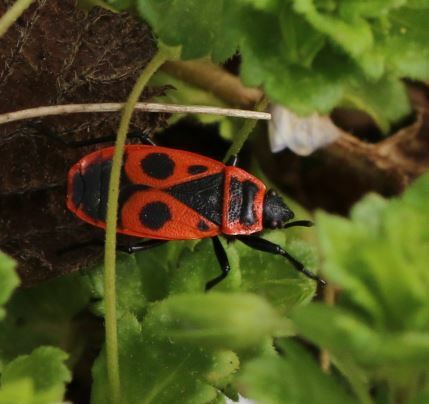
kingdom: Animalia
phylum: Arthropoda
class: Insecta
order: Hemiptera
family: Pyrrhocoridae
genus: Pyrrhocoris
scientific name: Pyrrhocoris apterus
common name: Firebug
